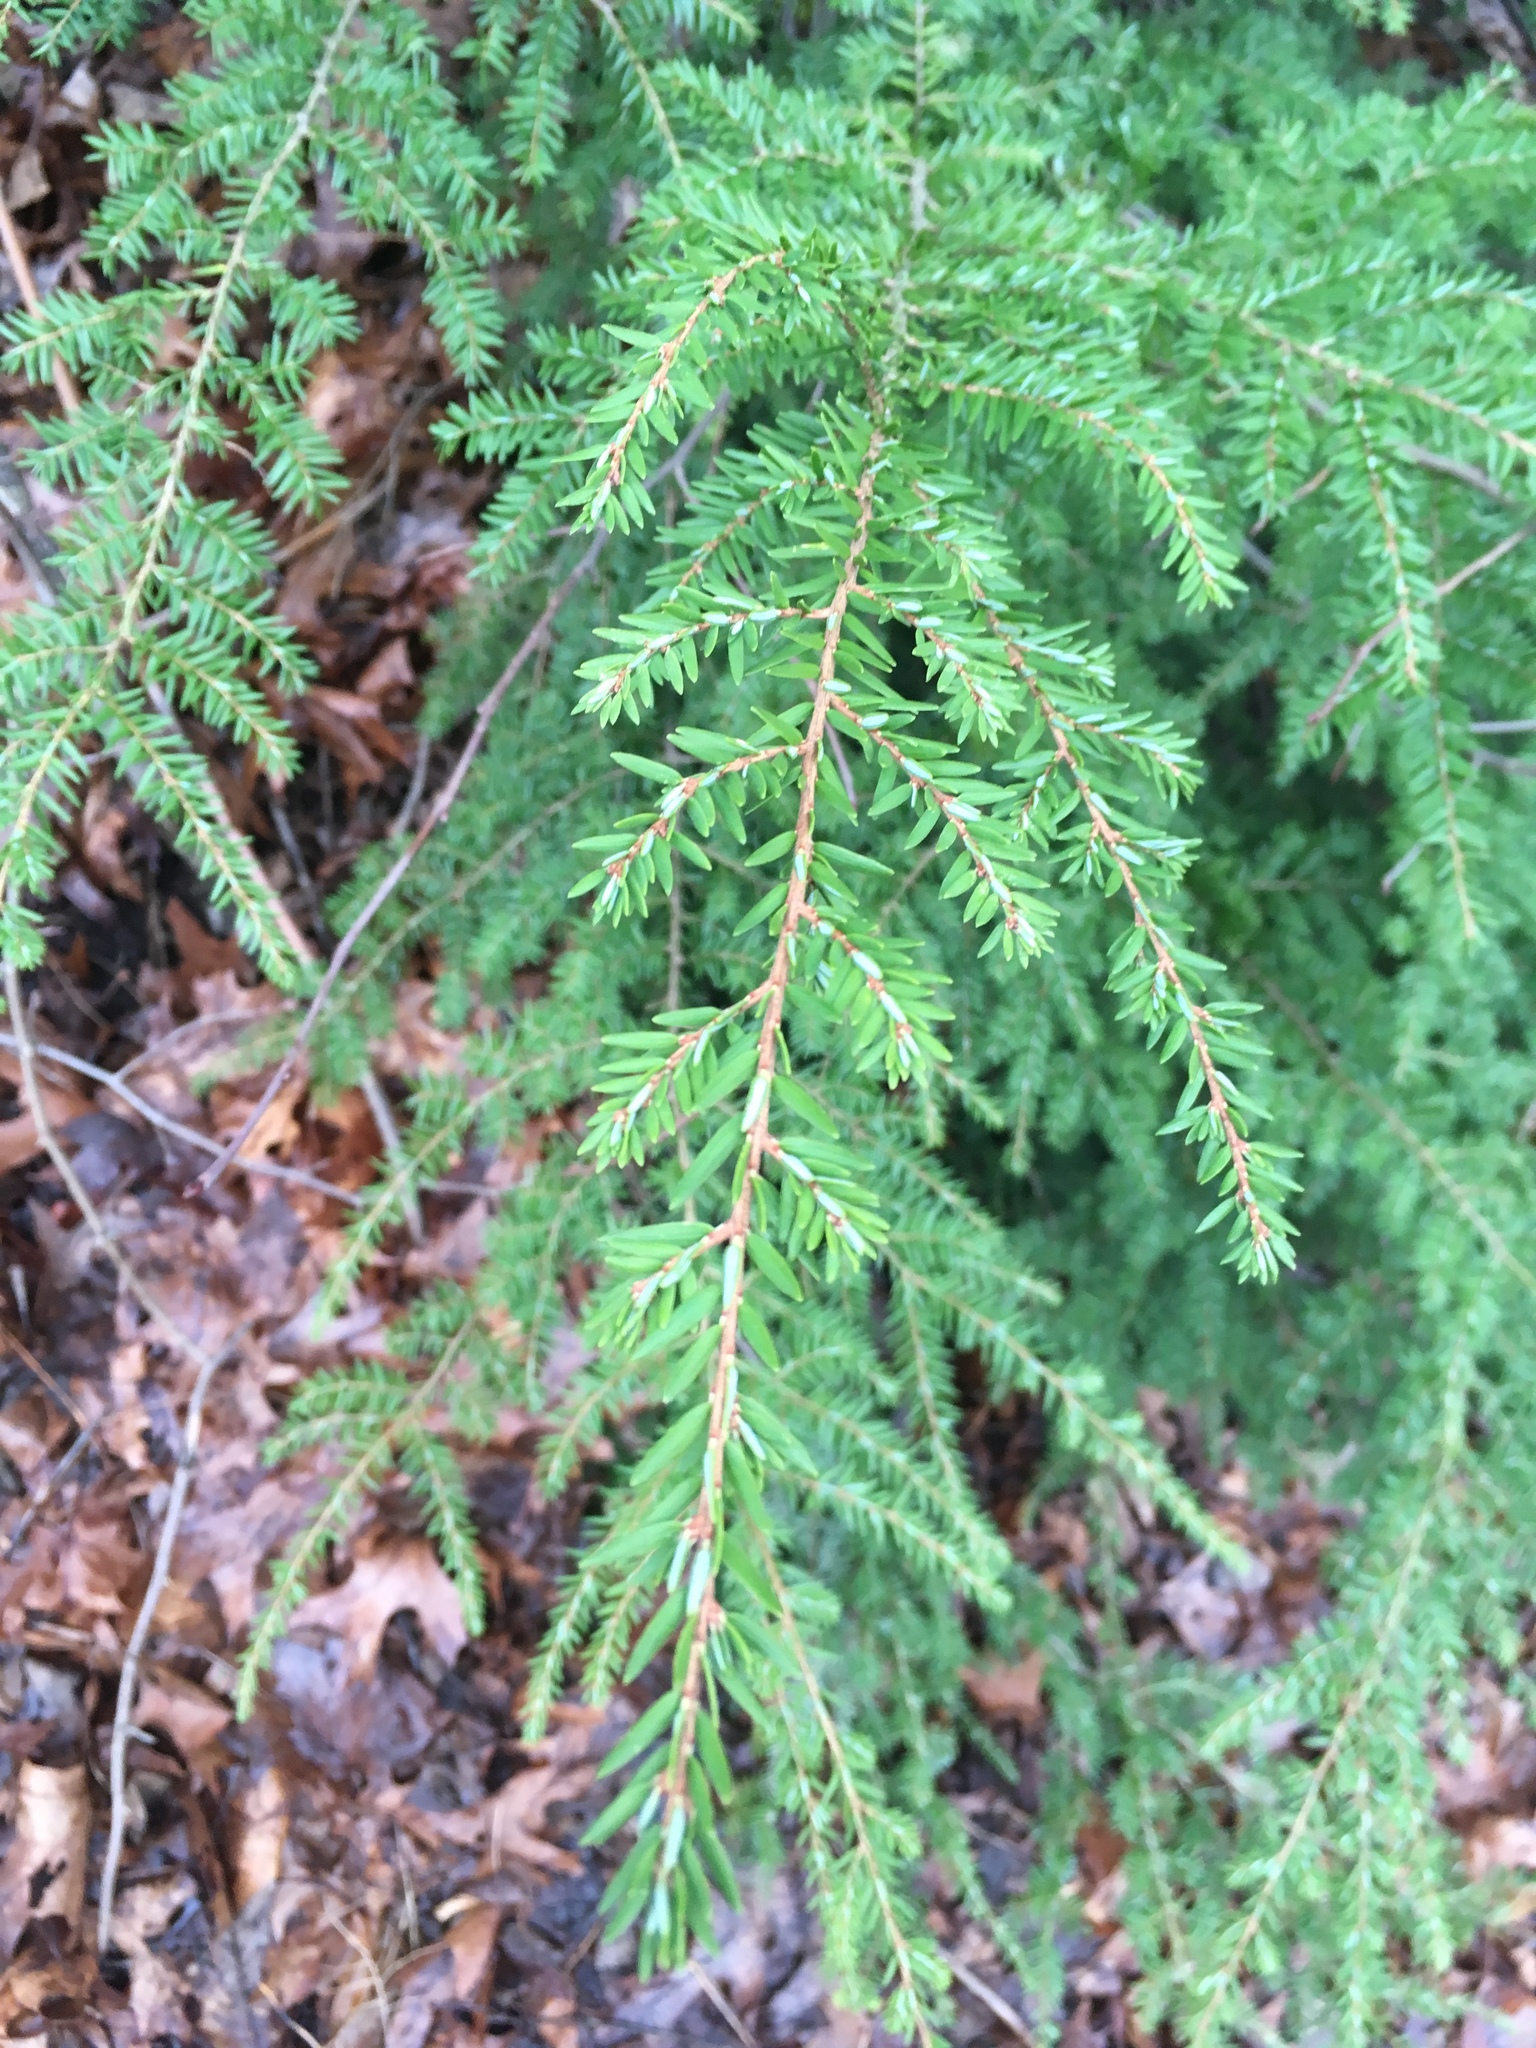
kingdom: Plantae
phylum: Tracheophyta
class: Pinopsida
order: Pinales
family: Pinaceae
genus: Tsuga
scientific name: Tsuga canadensis
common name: Eastern hemlock
